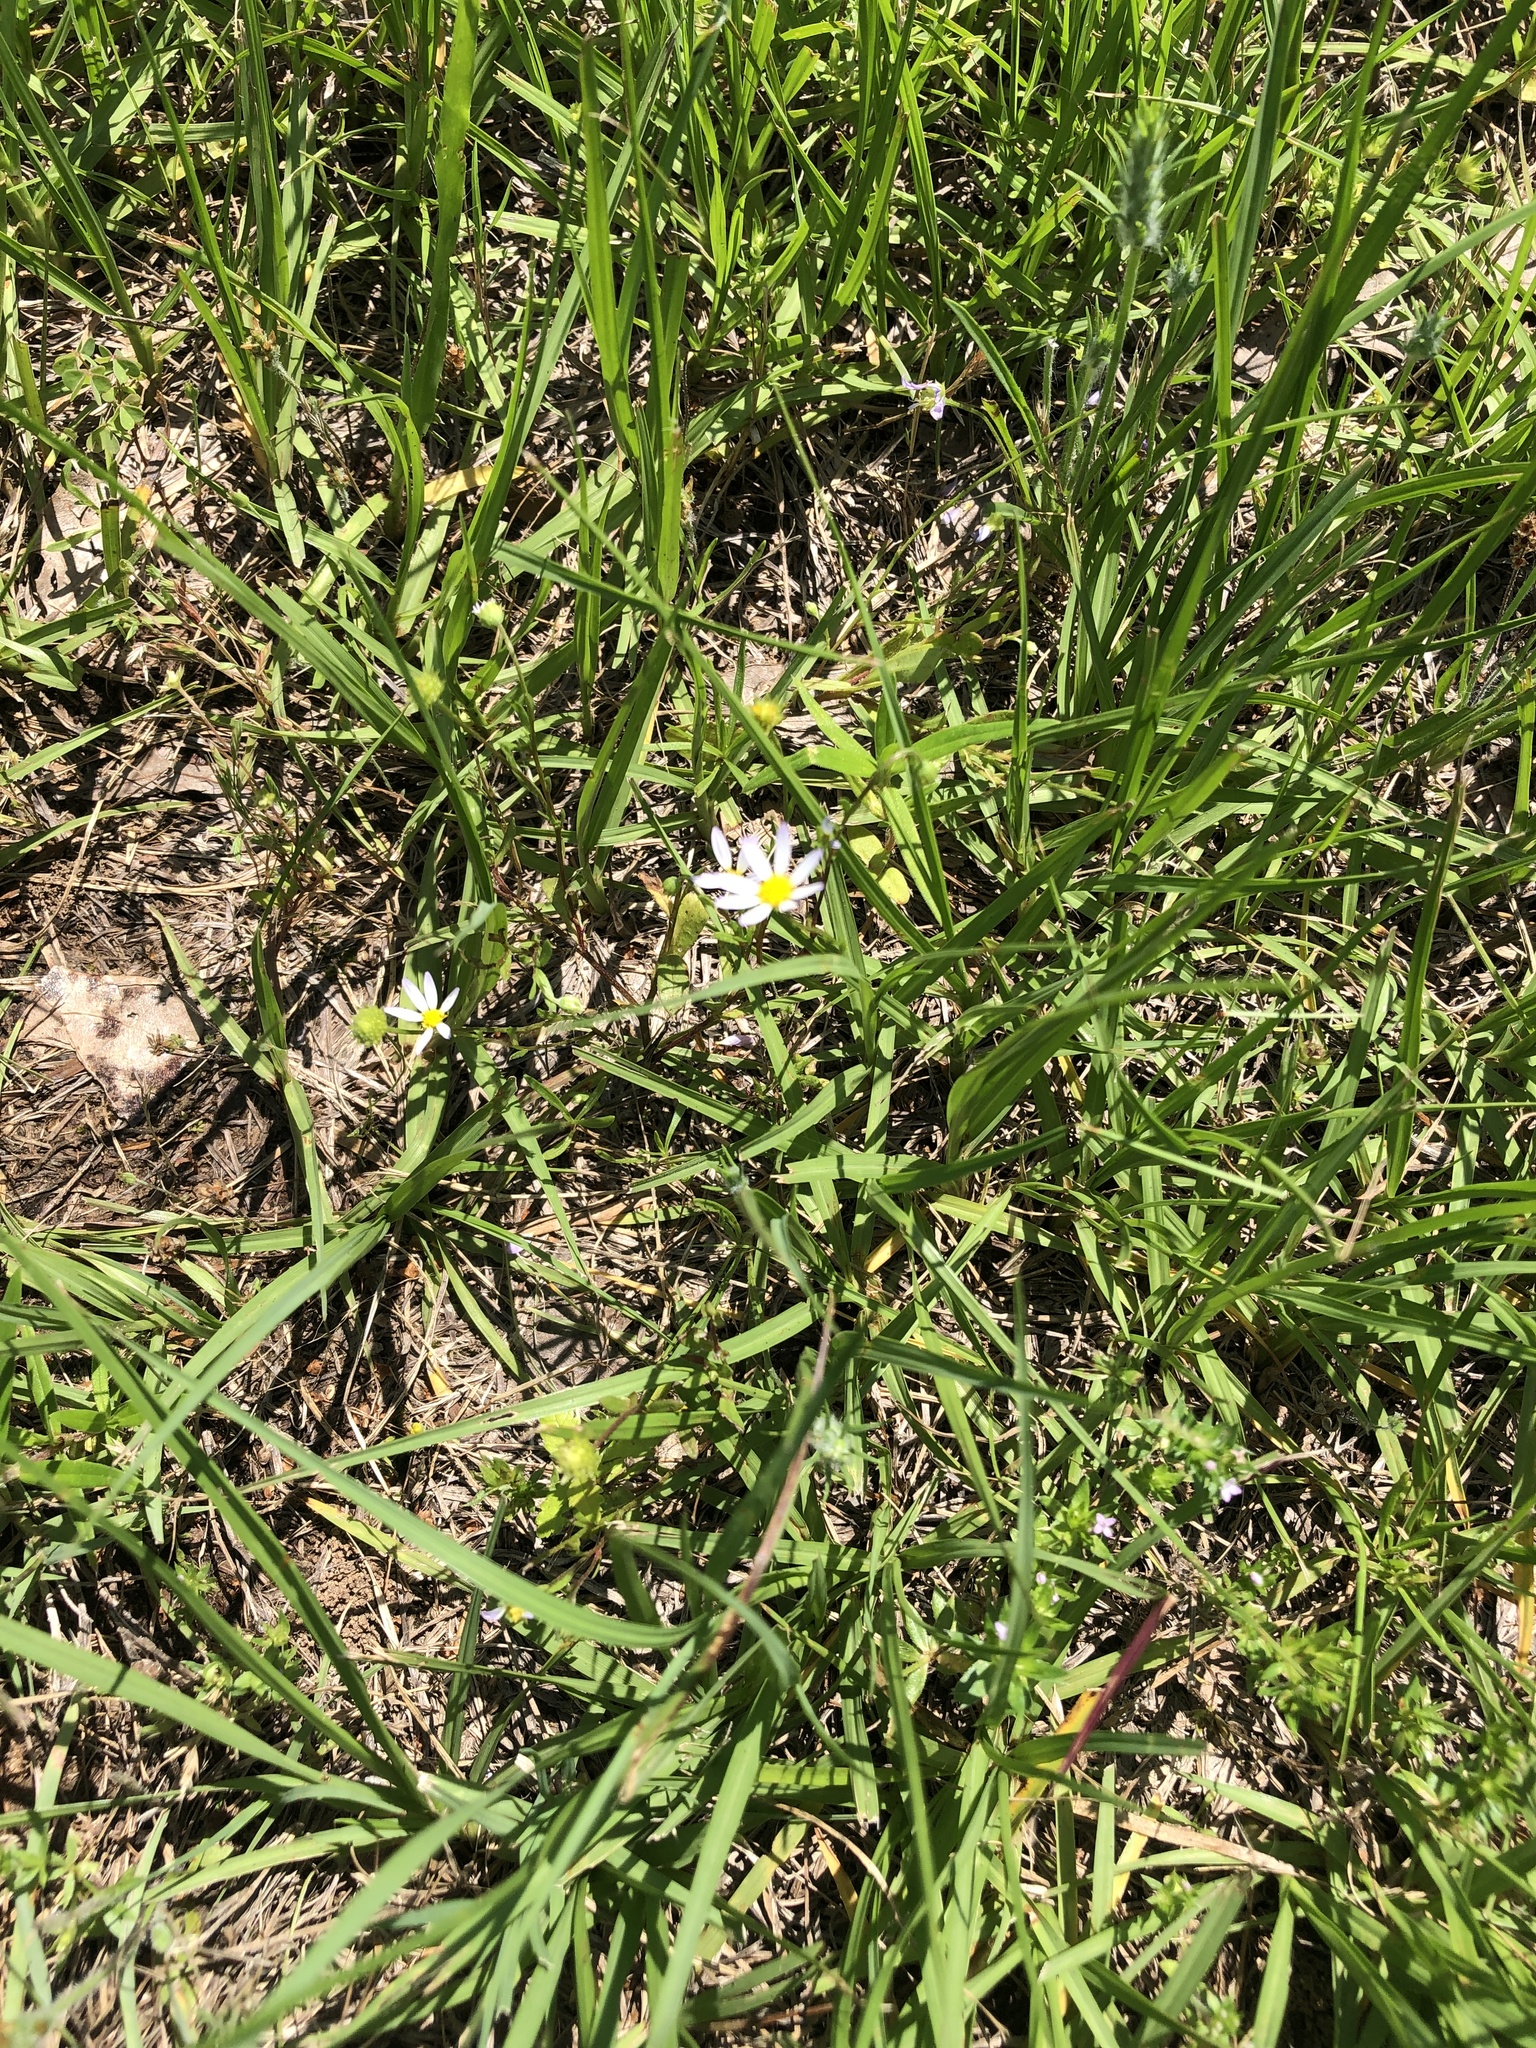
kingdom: Plantae
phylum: Tracheophyta
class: Magnoliopsida
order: Asterales
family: Asteraceae
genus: Astranthium
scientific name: Astranthium ciliatum
